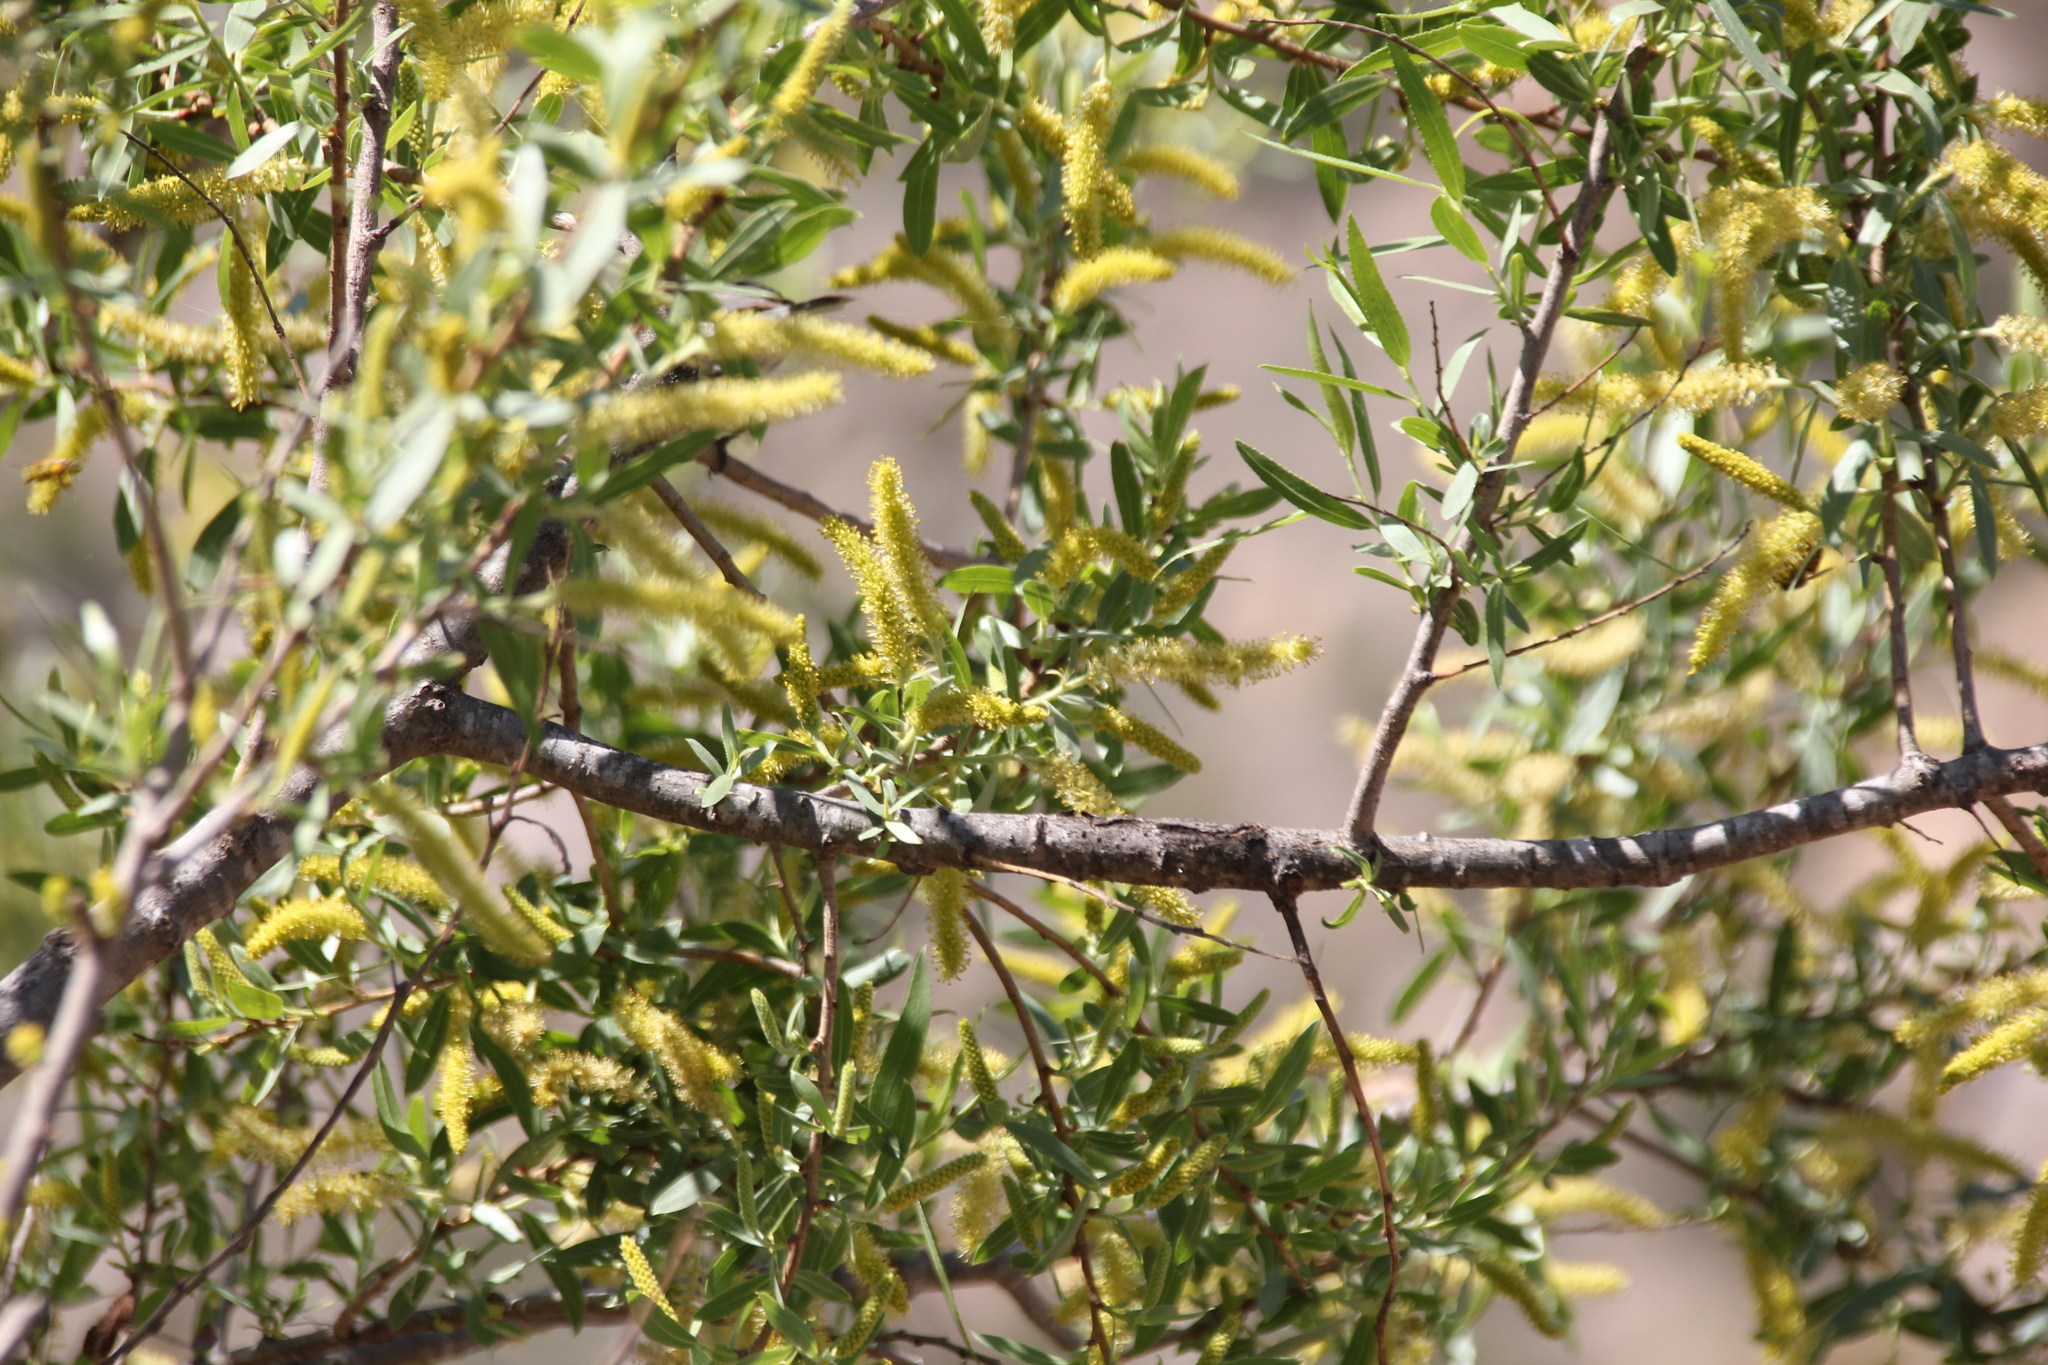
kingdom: Plantae
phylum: Tracheophyta
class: Magnoliopsida
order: Malpighiales
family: Salicaceae
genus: Salix
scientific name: Salix gooddingii
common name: Goodding's willow
